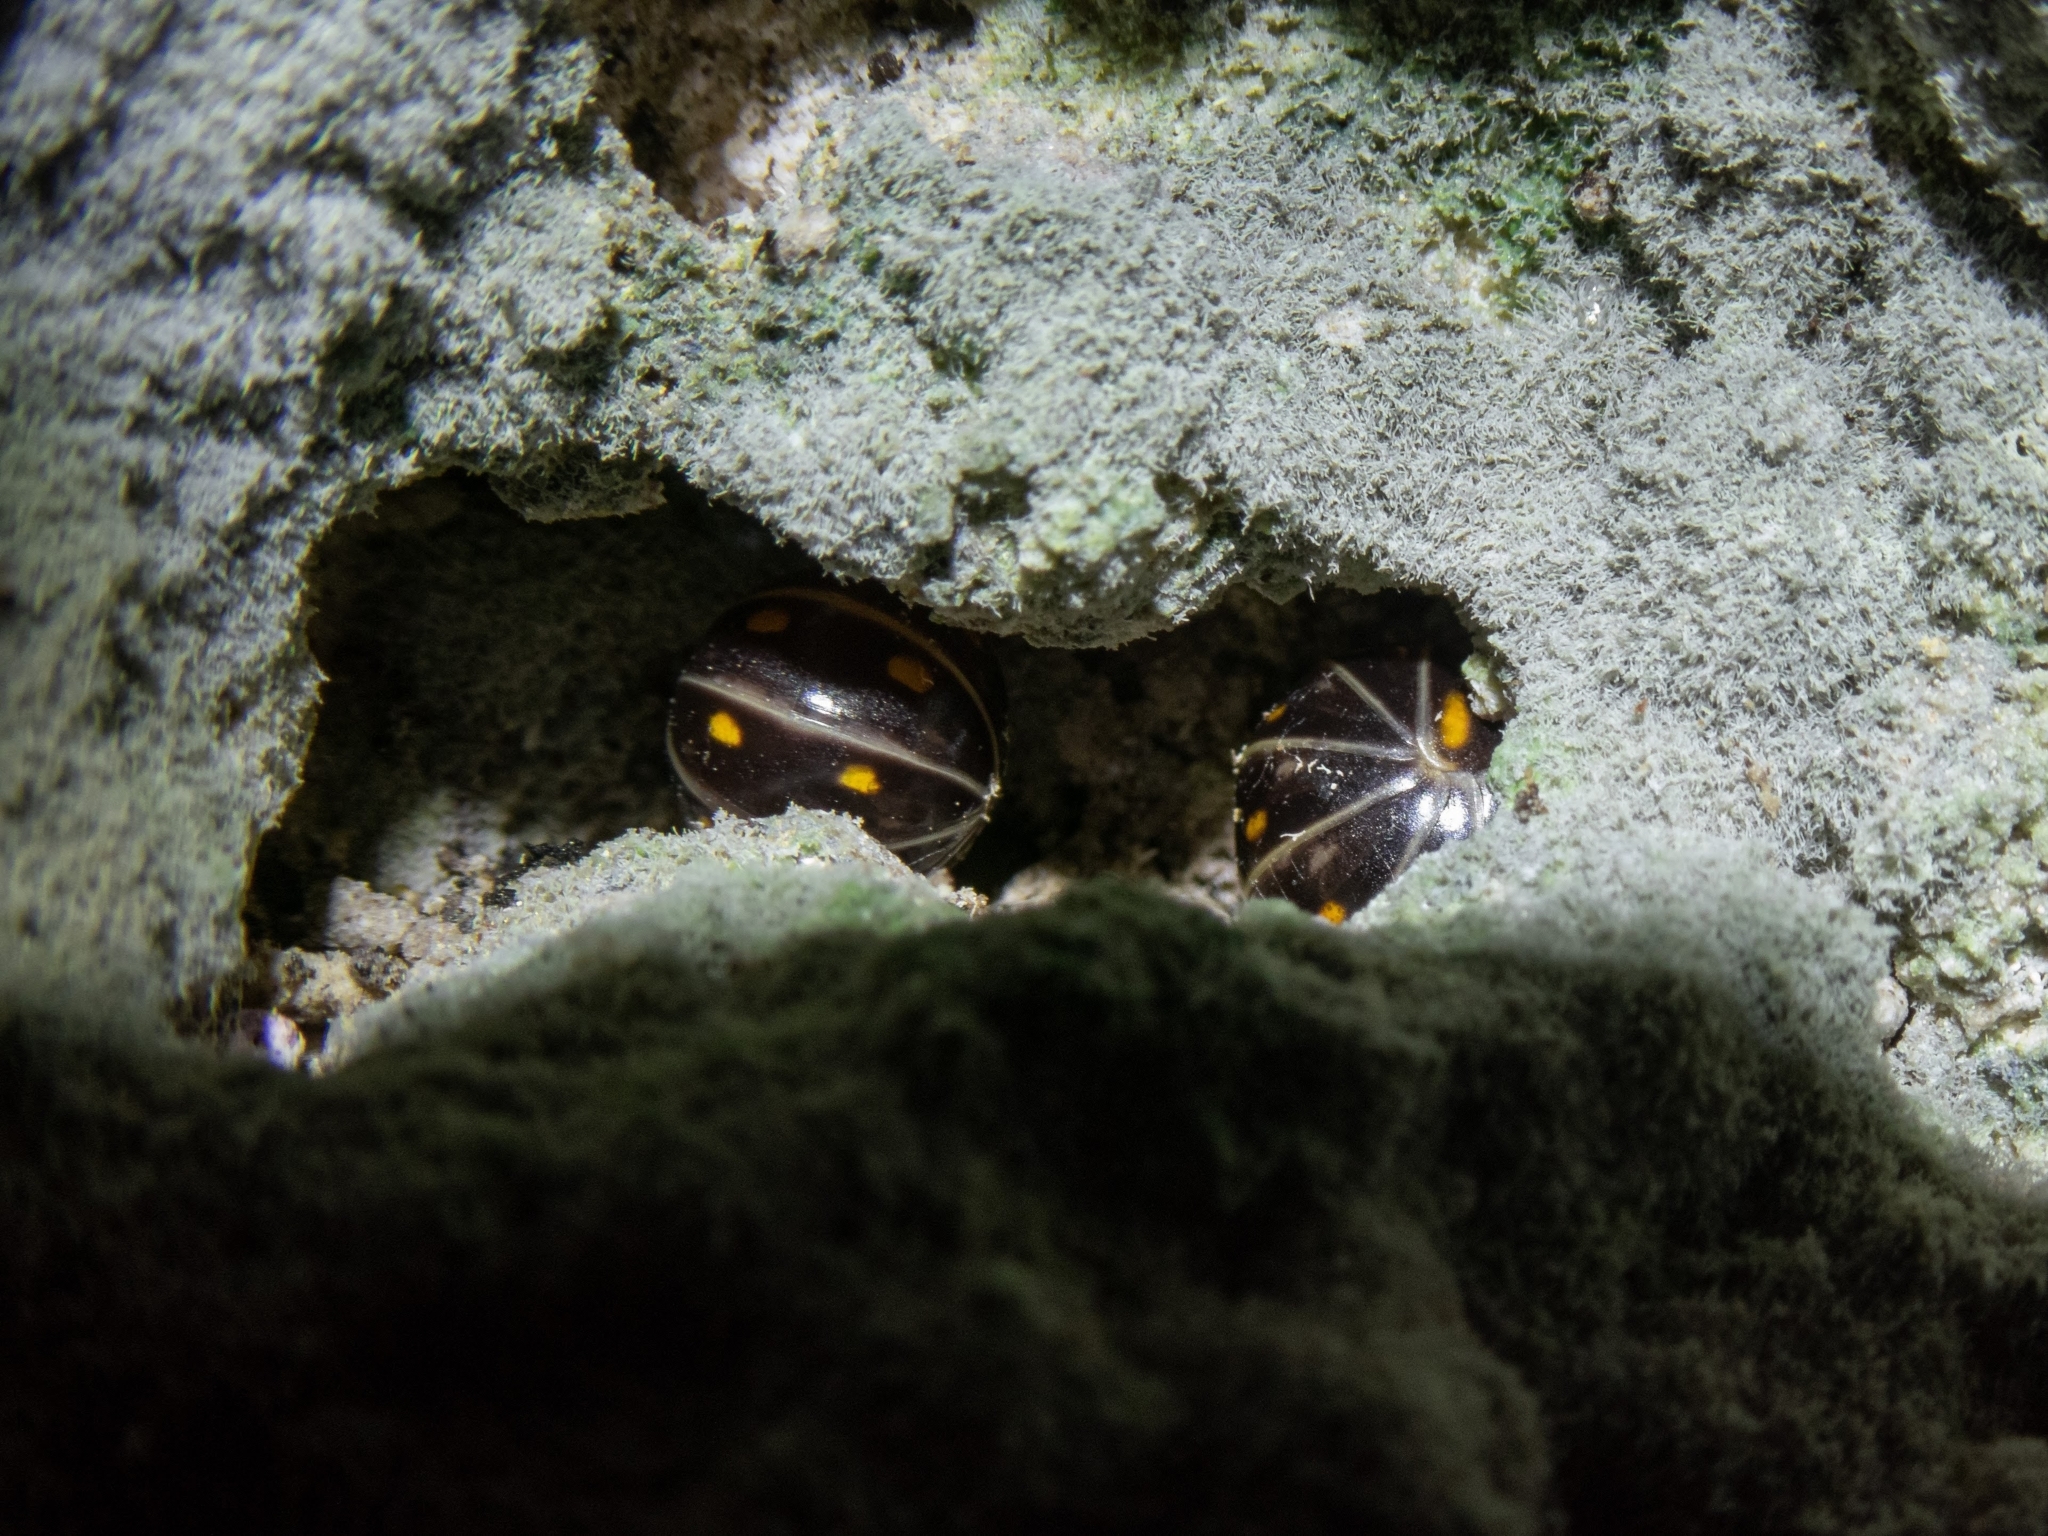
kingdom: Animalia
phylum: Arthropoda
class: Diplopoda
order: Glomerida
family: Glomeridae
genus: Glomeris
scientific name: Glomeris pustulata
